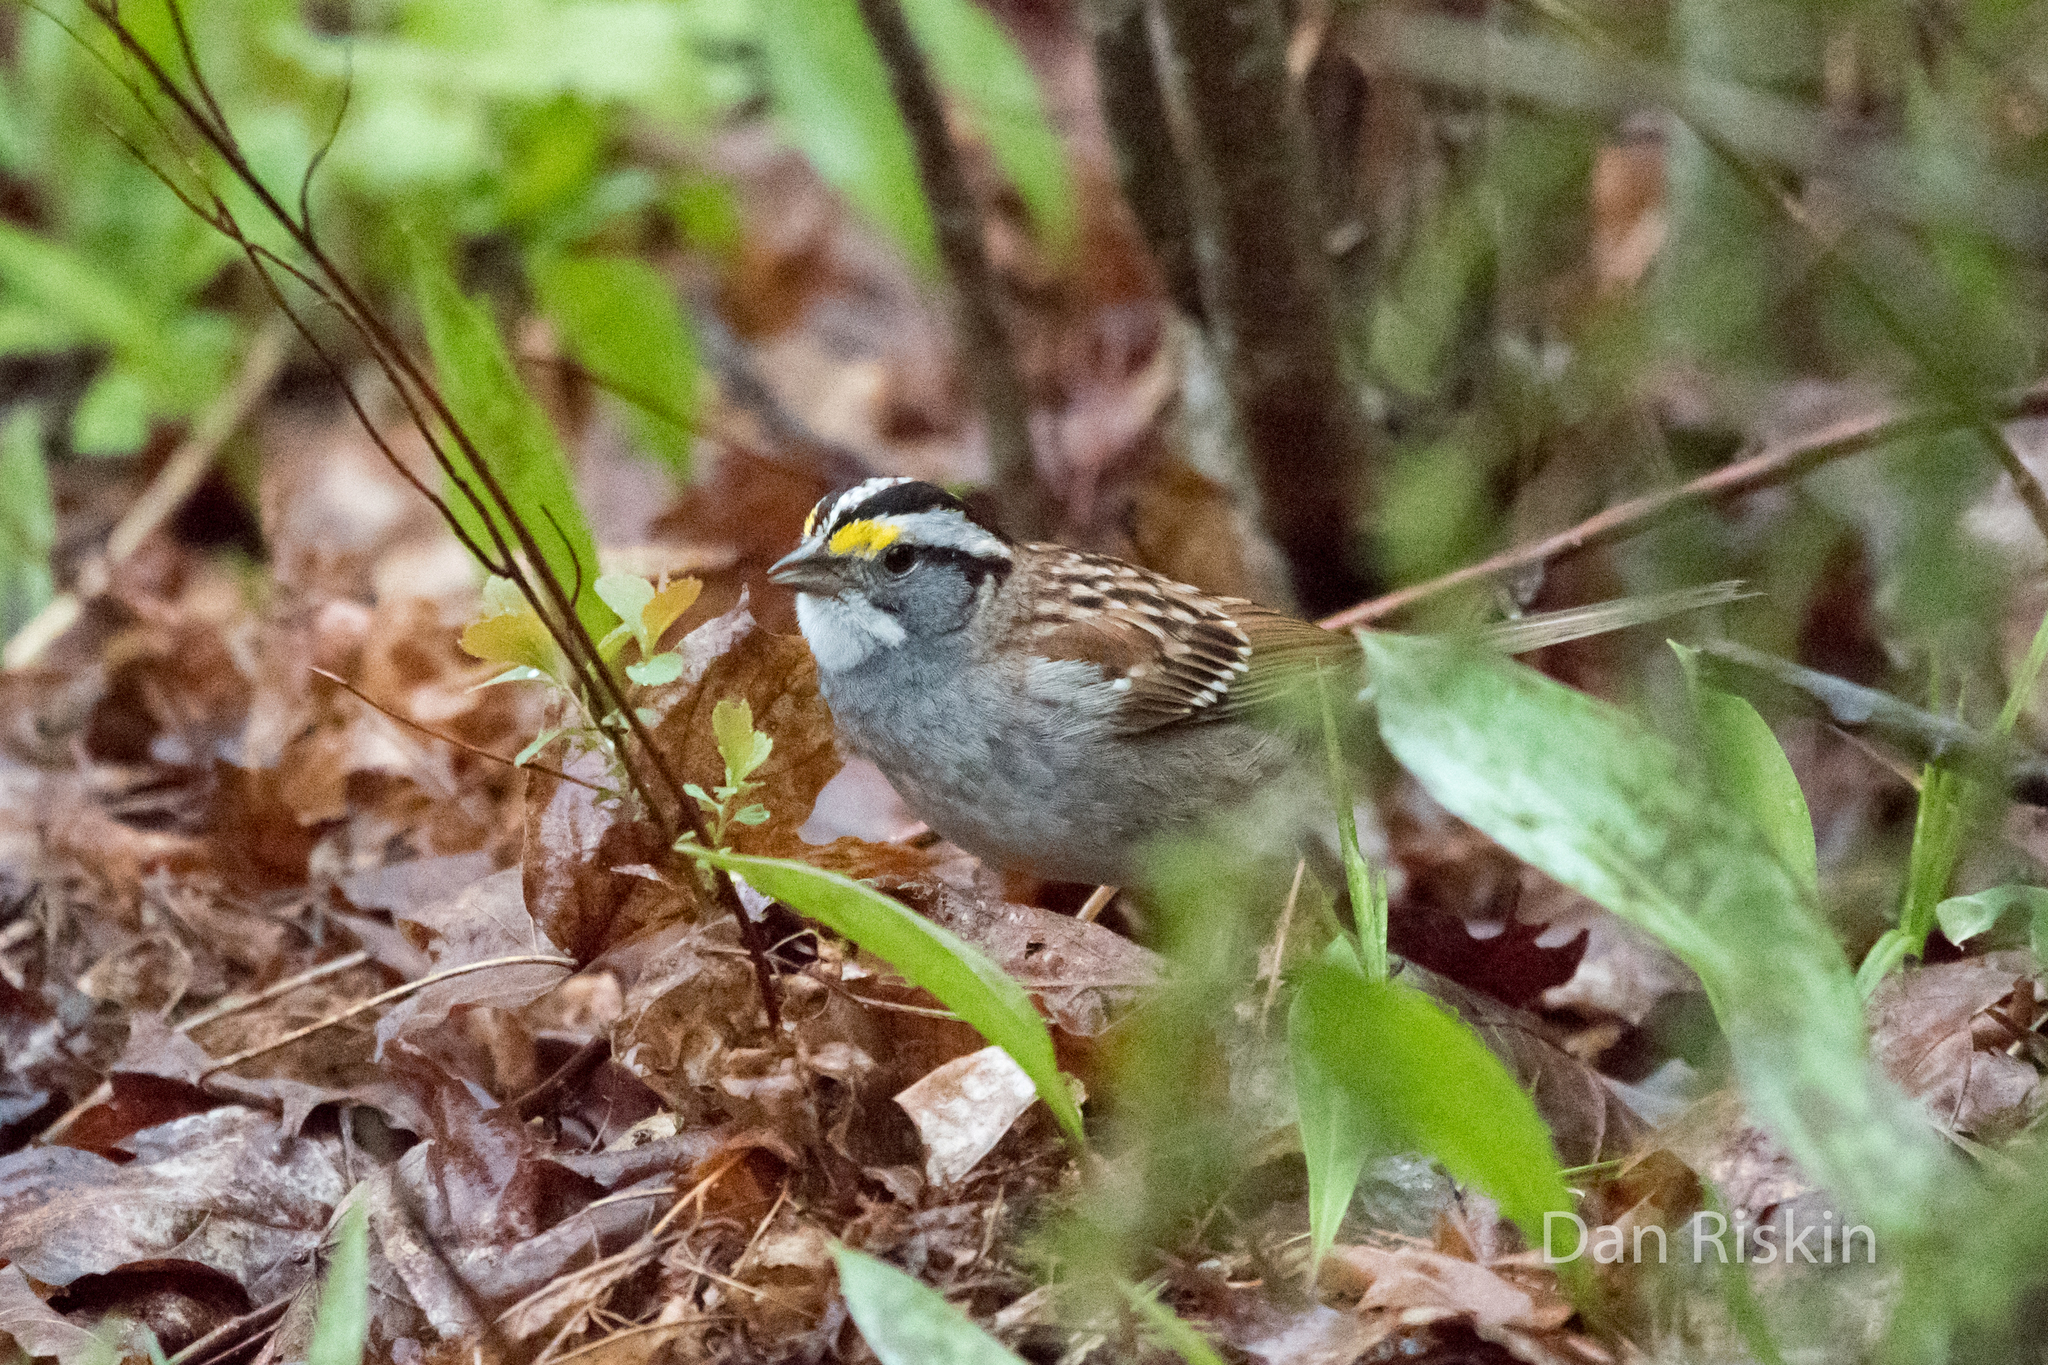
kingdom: Animalia
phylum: Chordata
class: Aves
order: Passeriformes
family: Passerellidae
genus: Zonotrichia
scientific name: Zonotrichia albicollis
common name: White-throated sparrow
